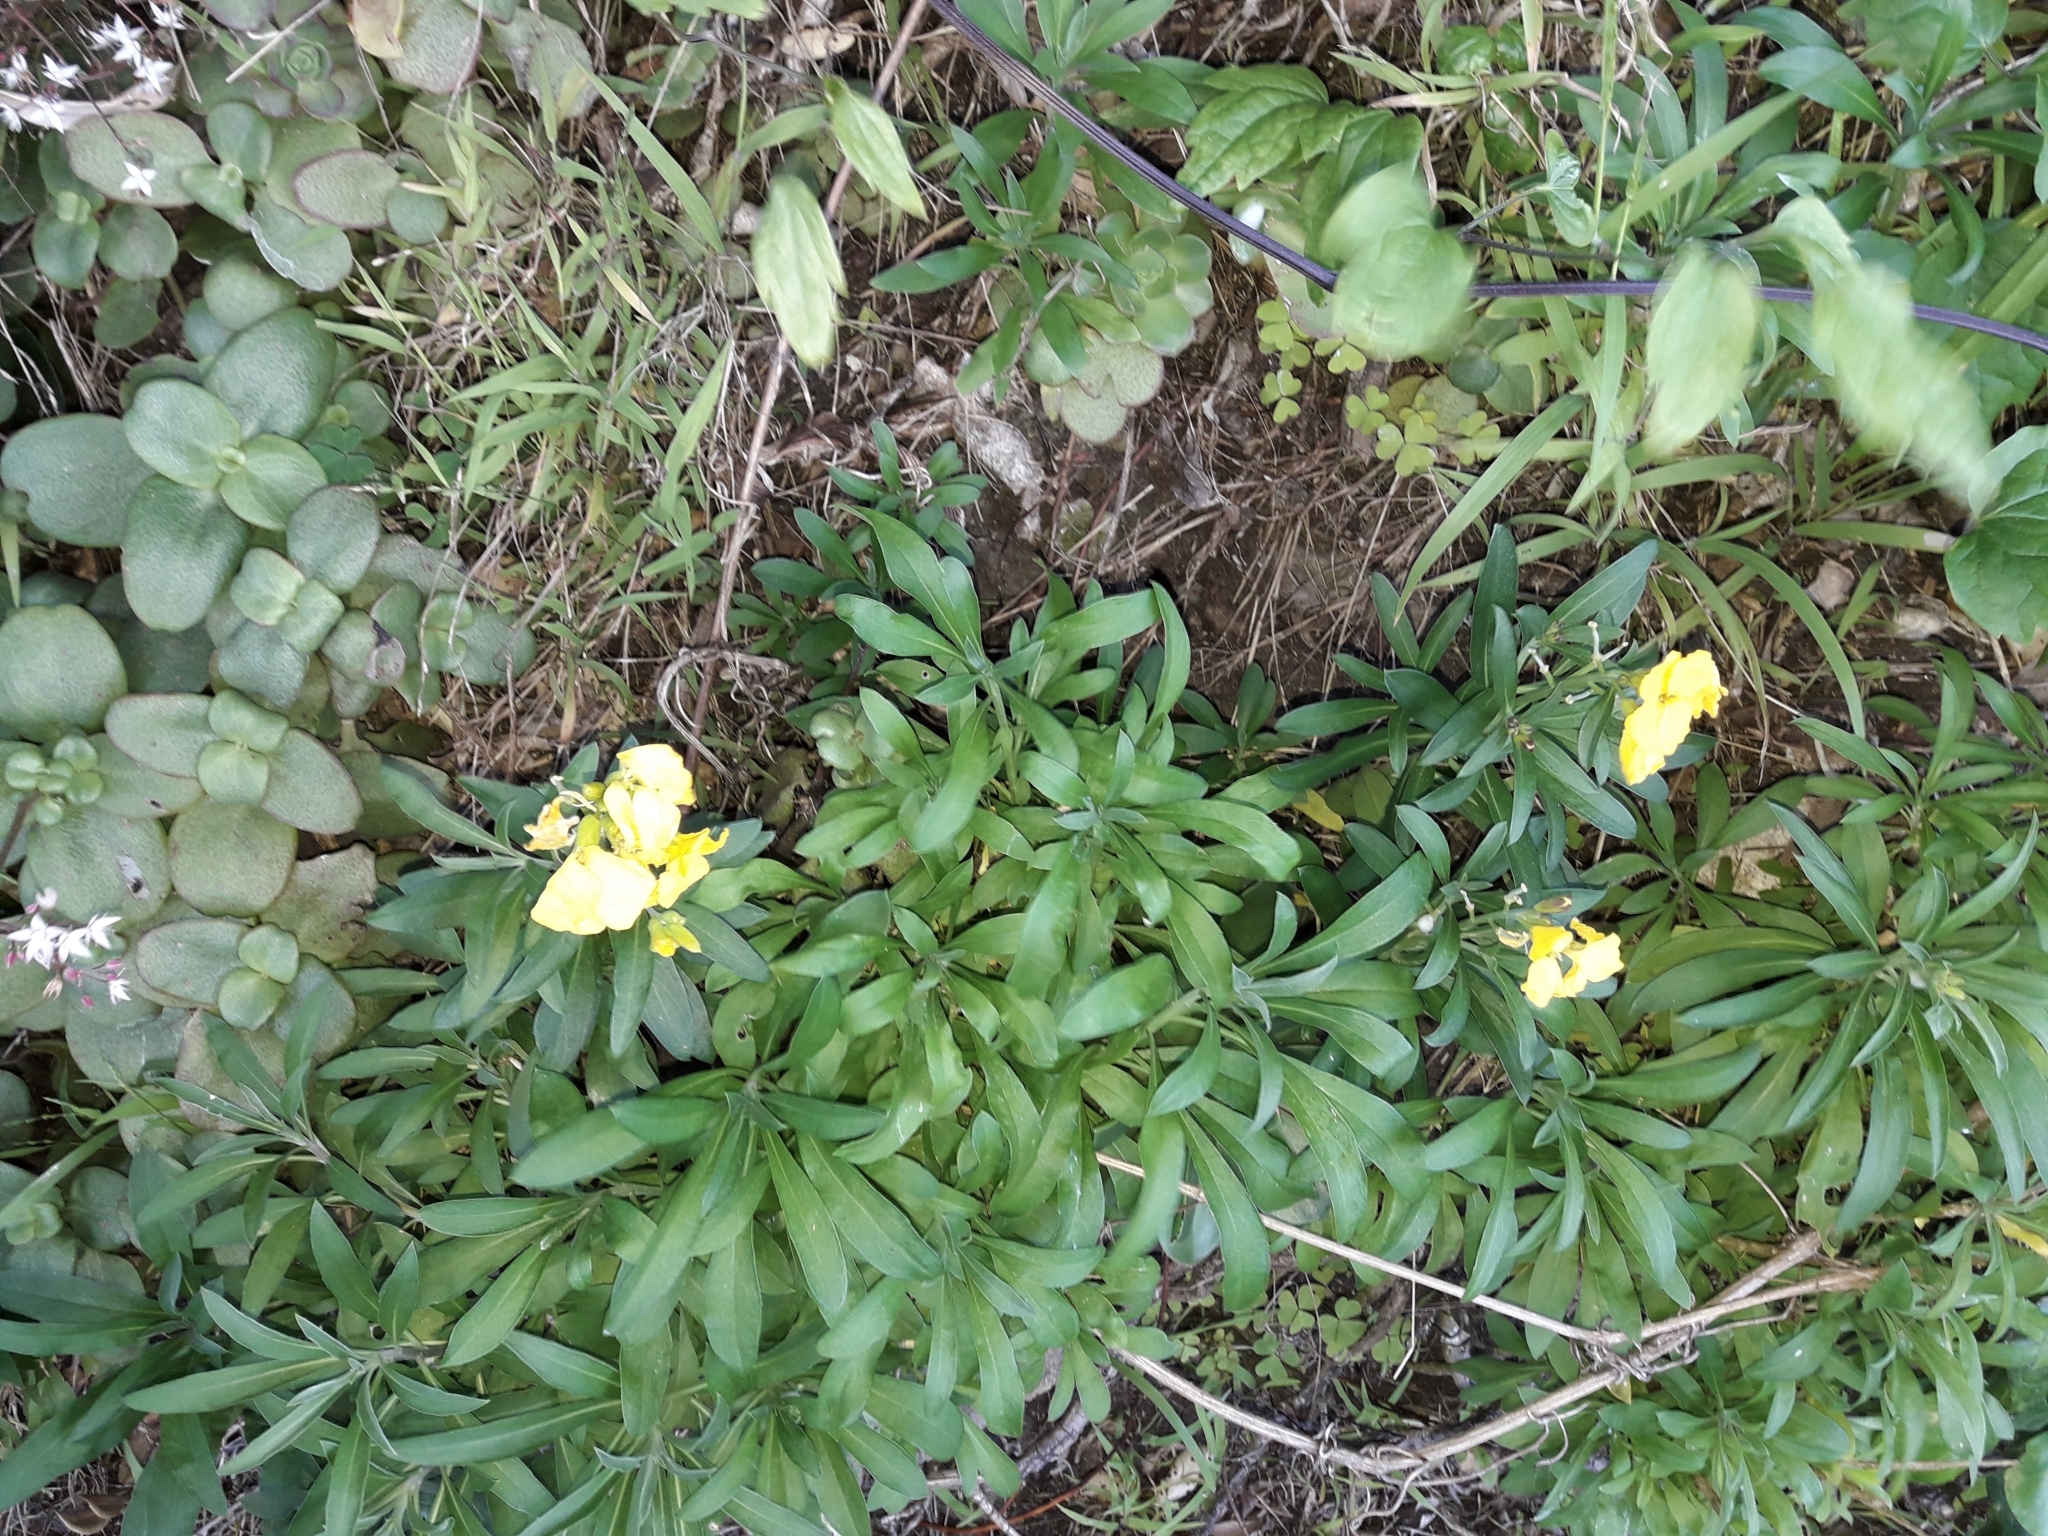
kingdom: Plantae
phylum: Tracheophyta
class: Magnoliopsida
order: Brassicales
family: Brassicaceae
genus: Erysimum
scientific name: Erysimum cheiri
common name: Wallflower
